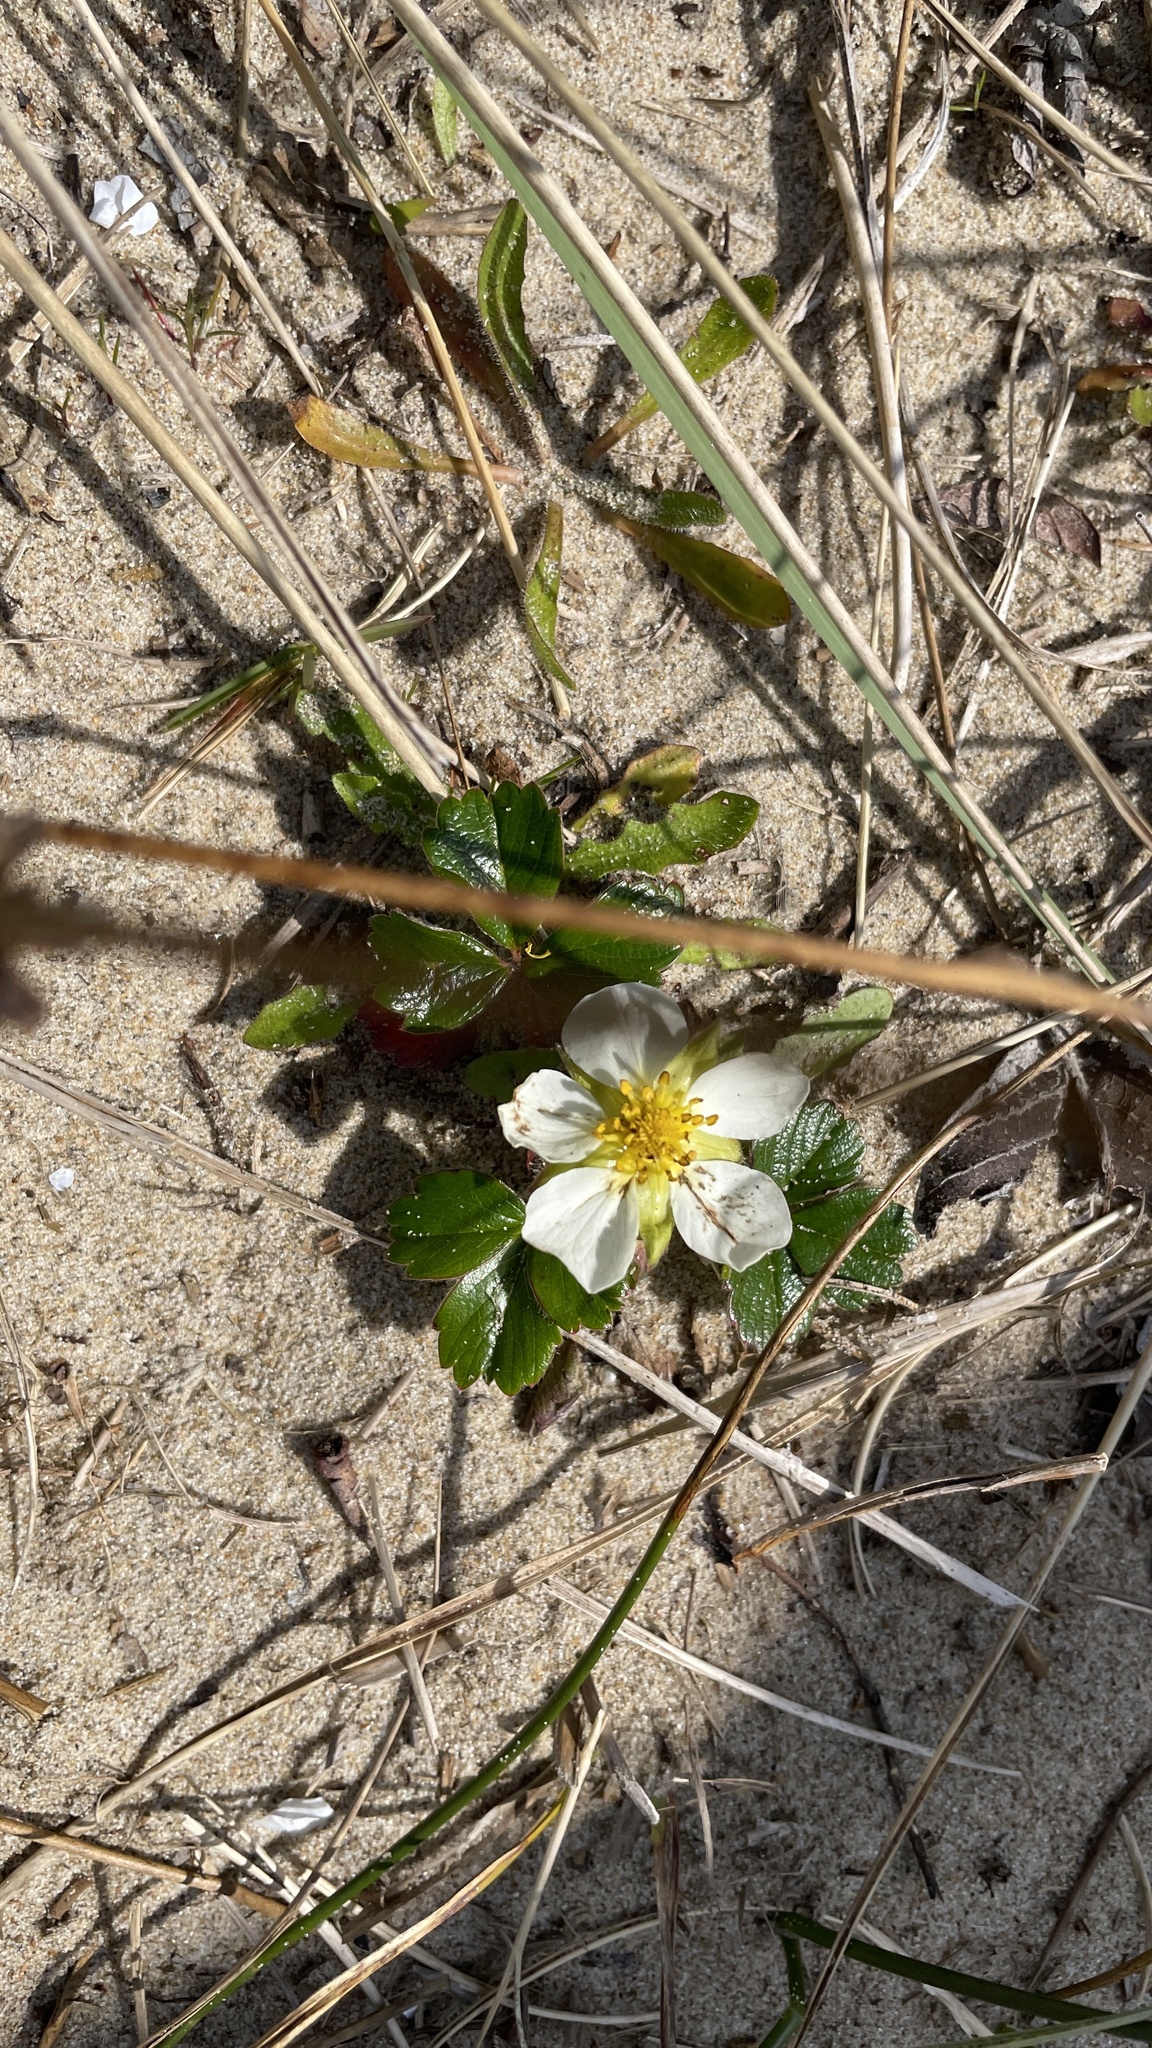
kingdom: Plantae
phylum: Tracheophyta
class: Magnoliopsida
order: Rosales
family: Rosaceae
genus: Fragaria
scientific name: Fragaria chiloensis
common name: Beach strawberry
